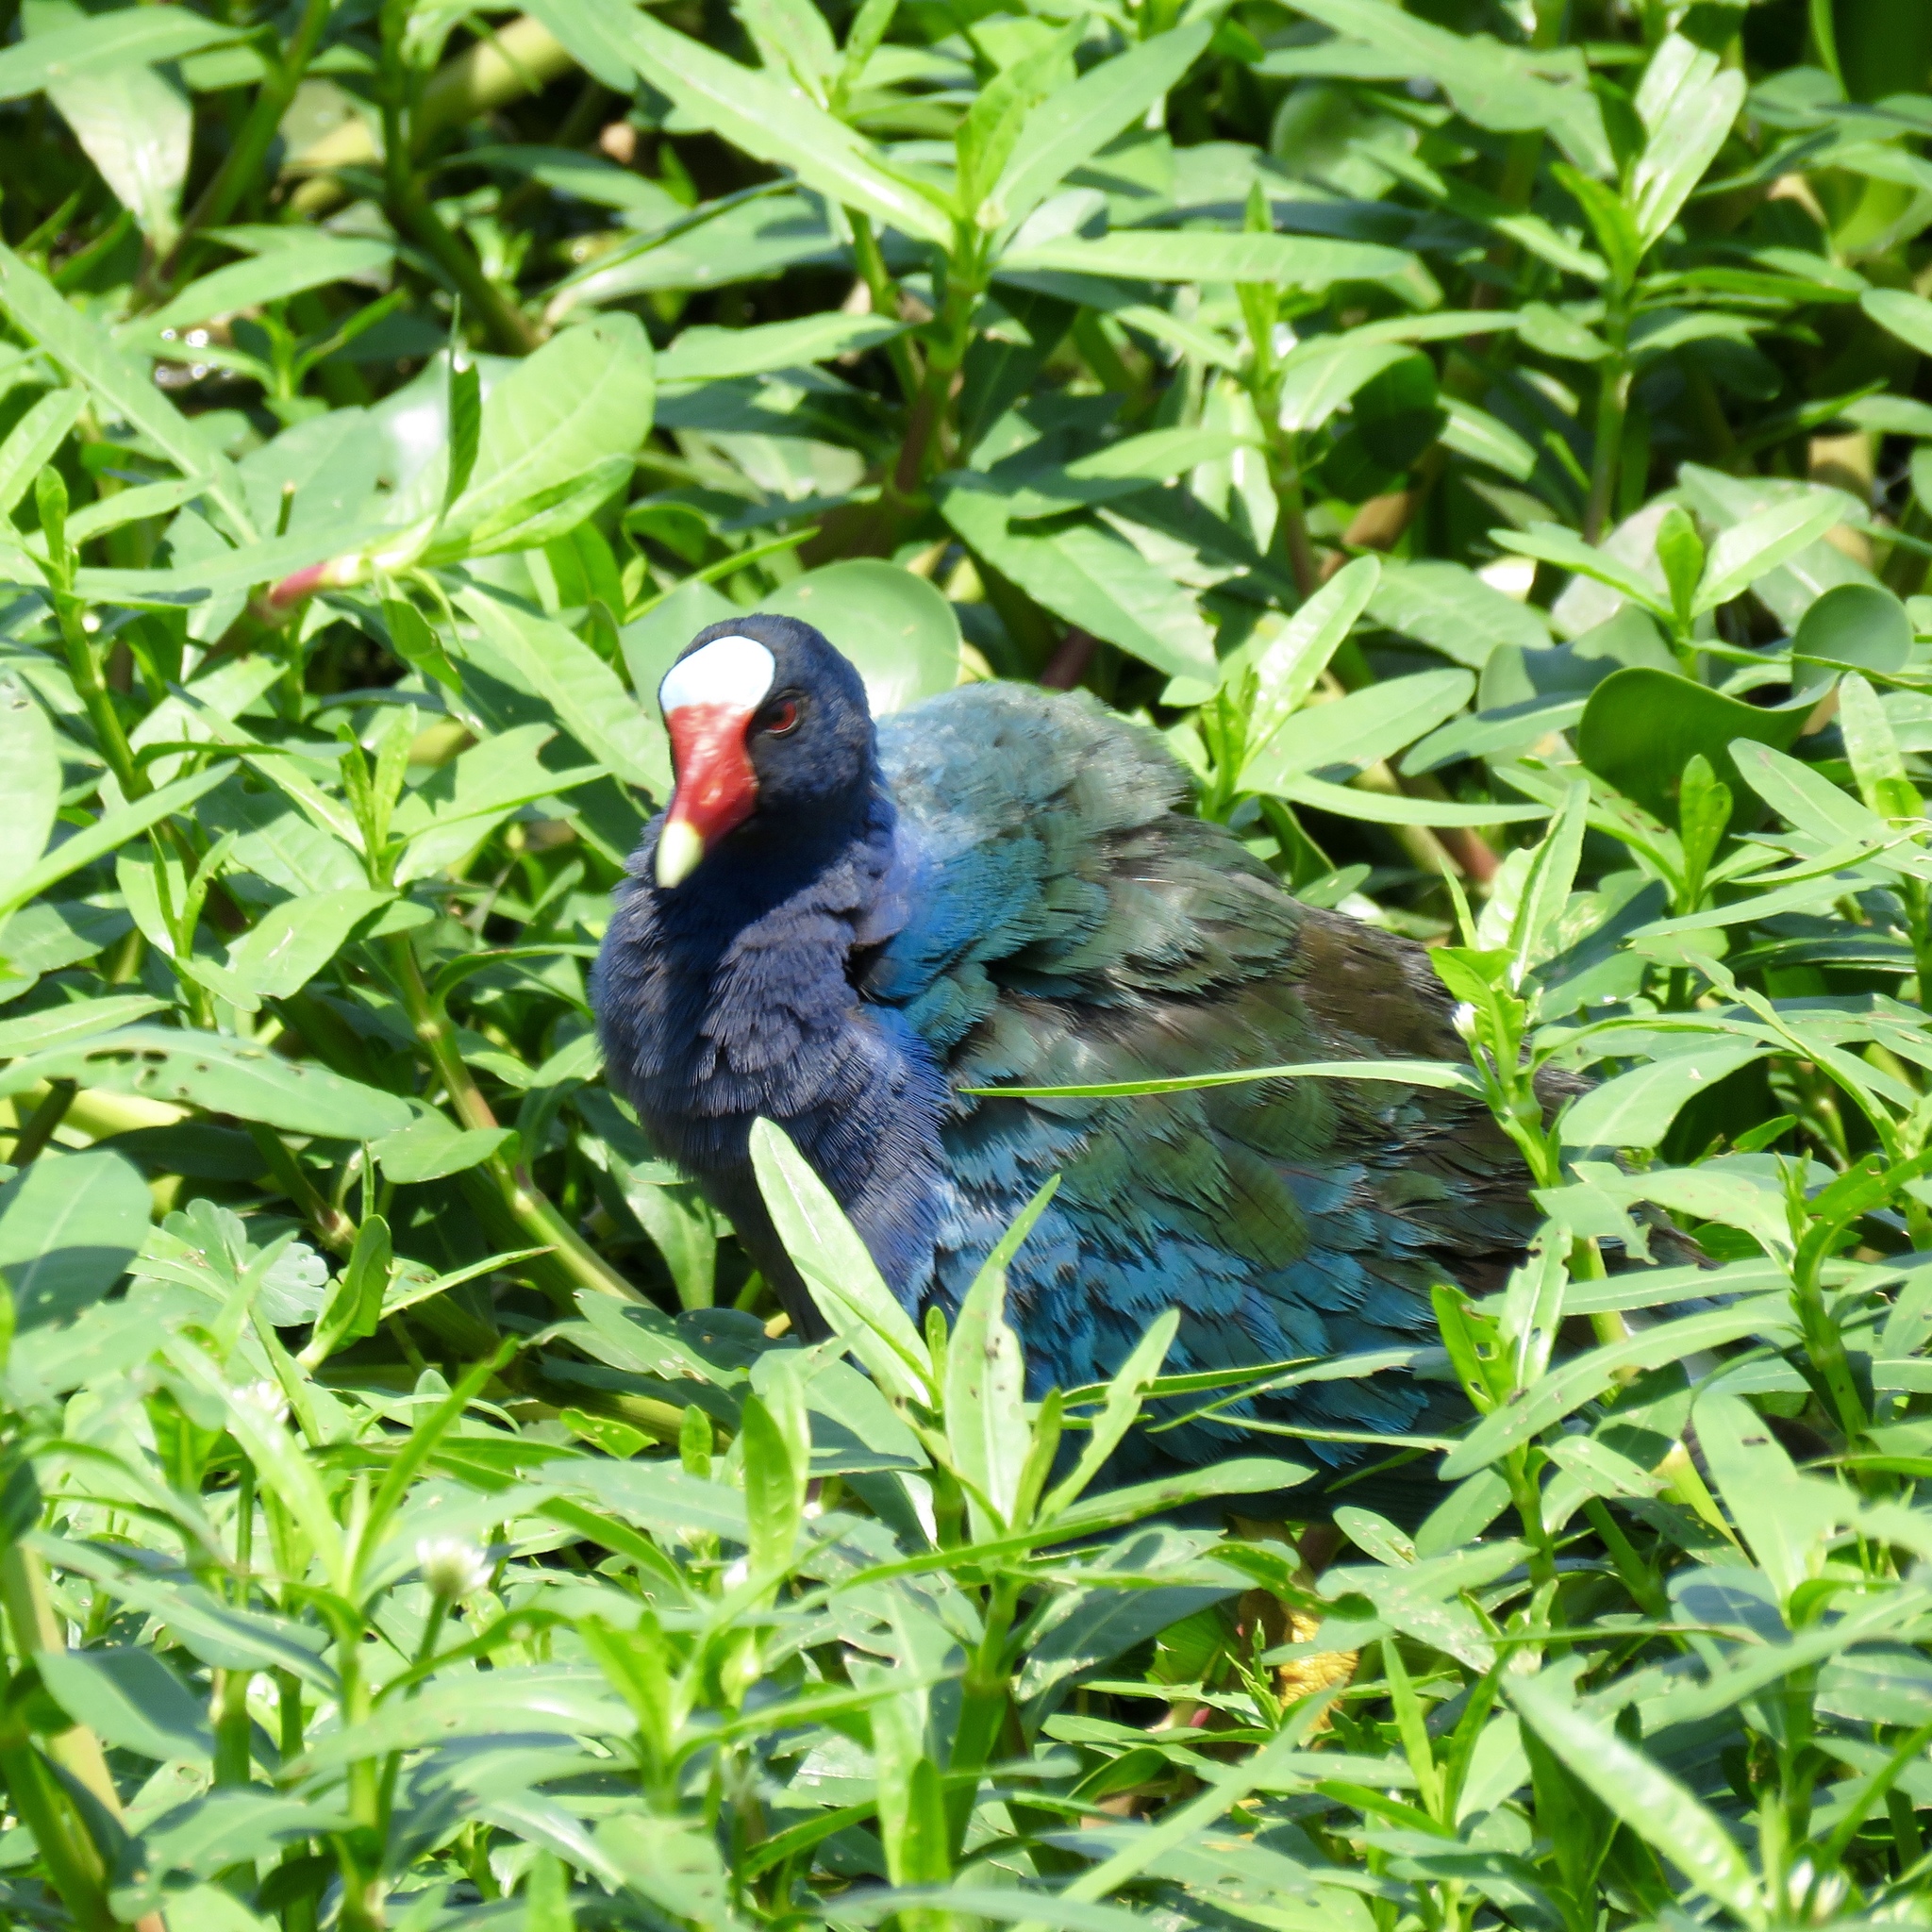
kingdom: Animalia
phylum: Chordata
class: Aves
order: Gruiformes
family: Rallidae
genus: Porphyrio
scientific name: Porphyrio martinica
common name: Purple gallinule
